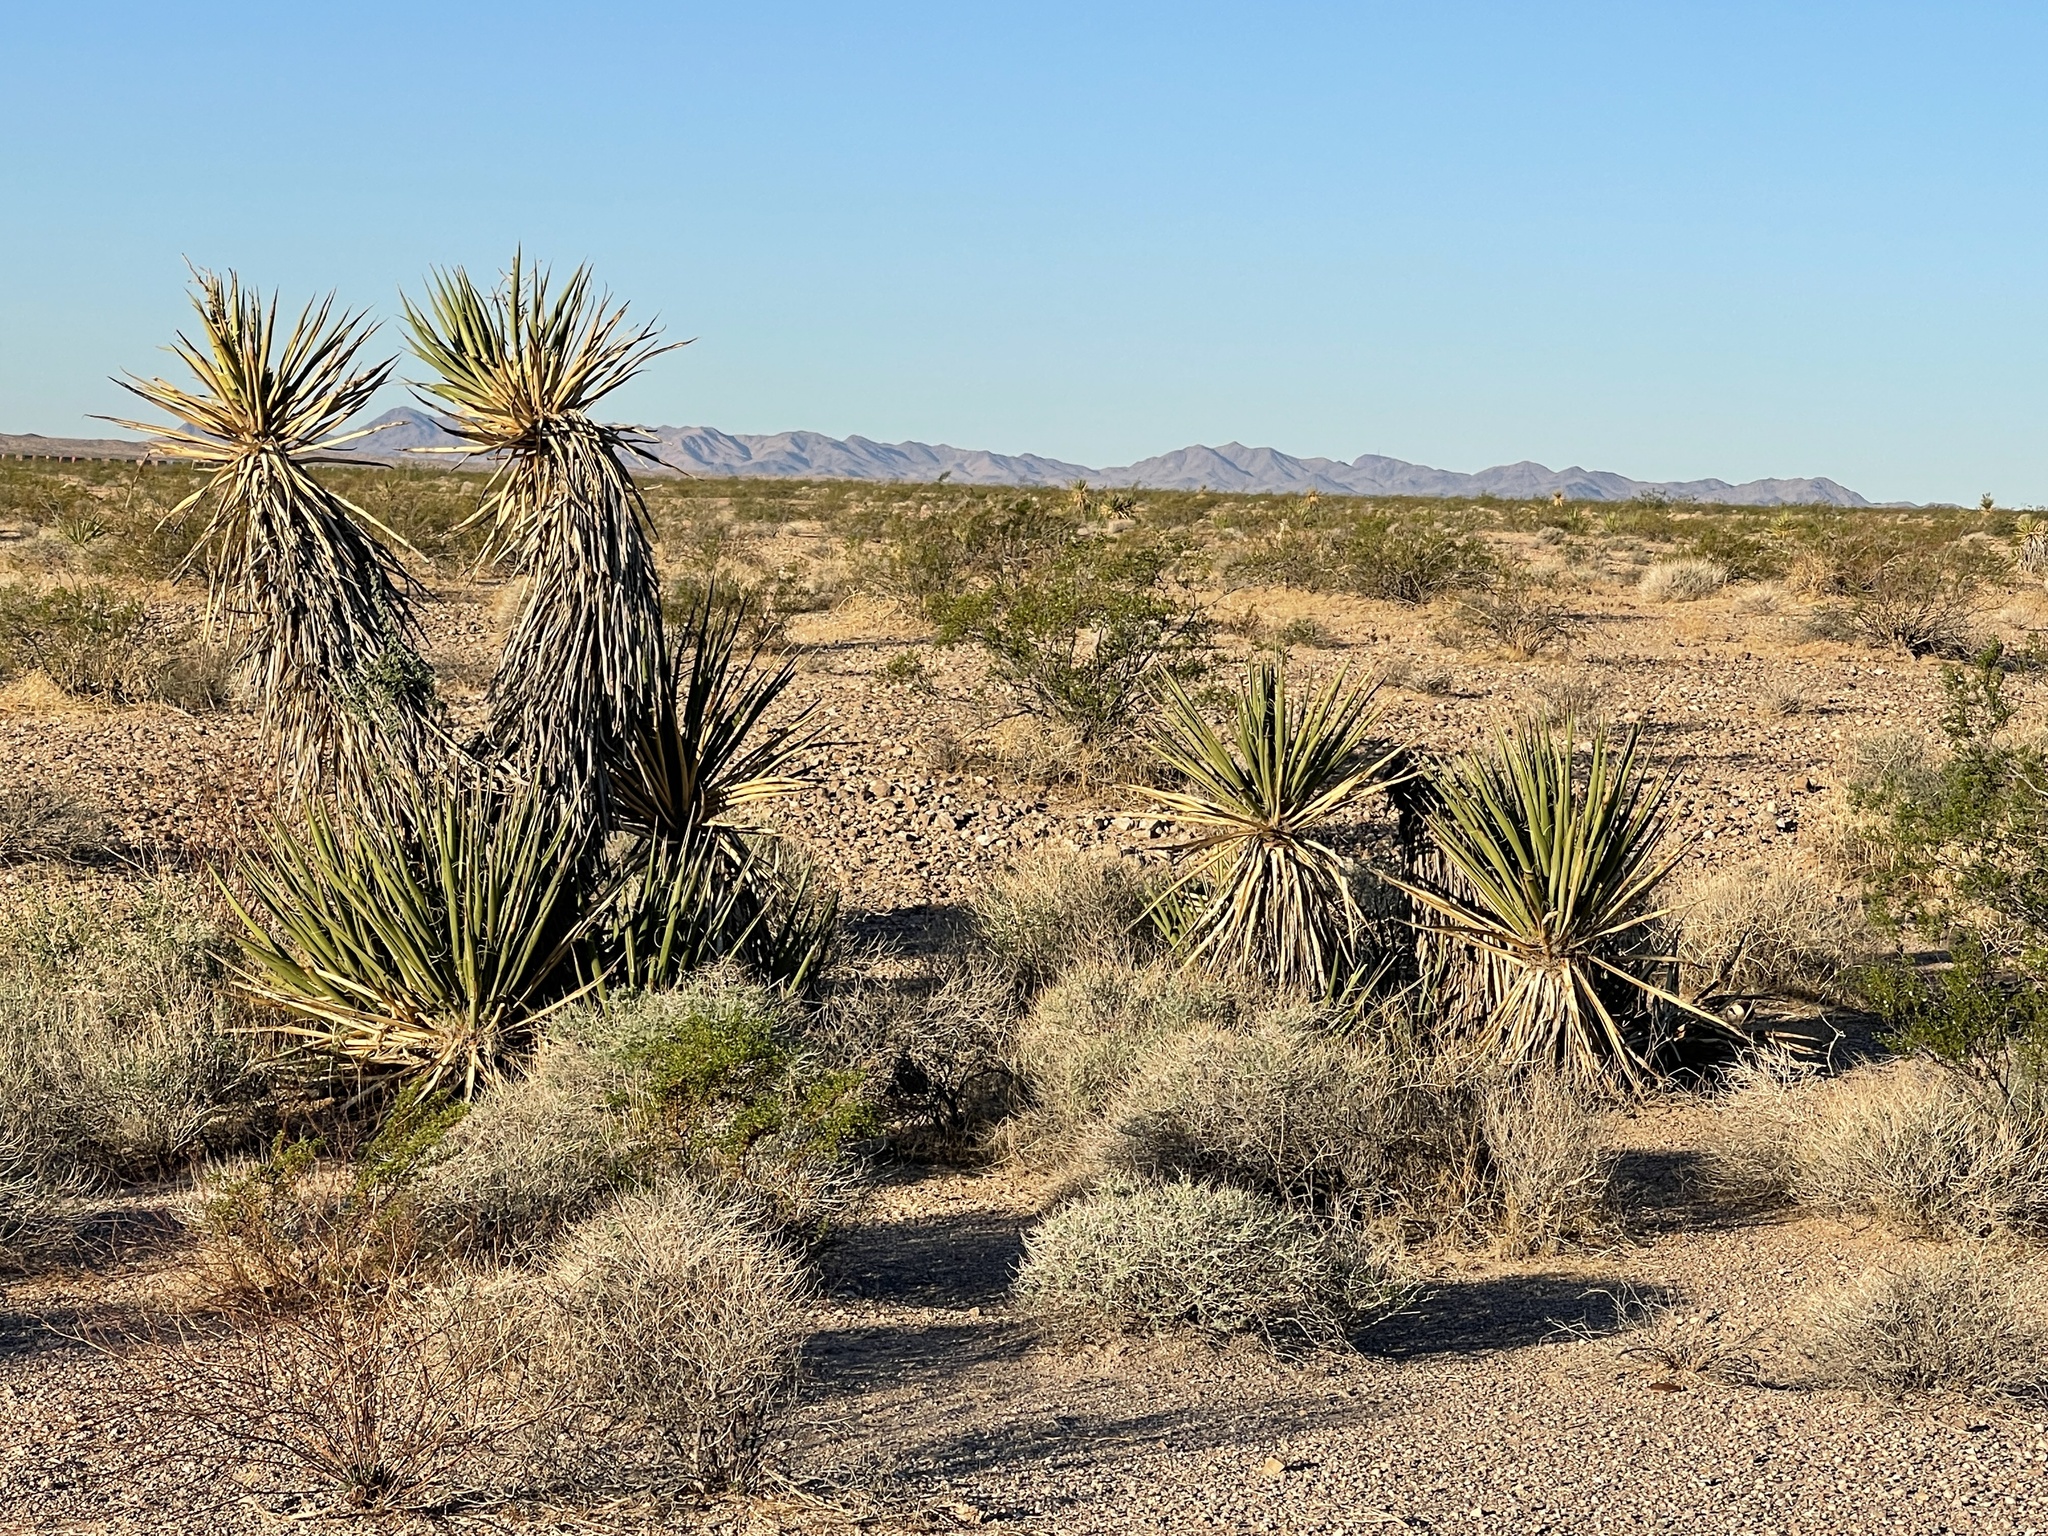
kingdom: Plantae
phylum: Tracheophyta
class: Liliopsida
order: Asparagales
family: Asparagaceae
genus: Yucca
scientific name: Yucca schidigera
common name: Mojave yucca
